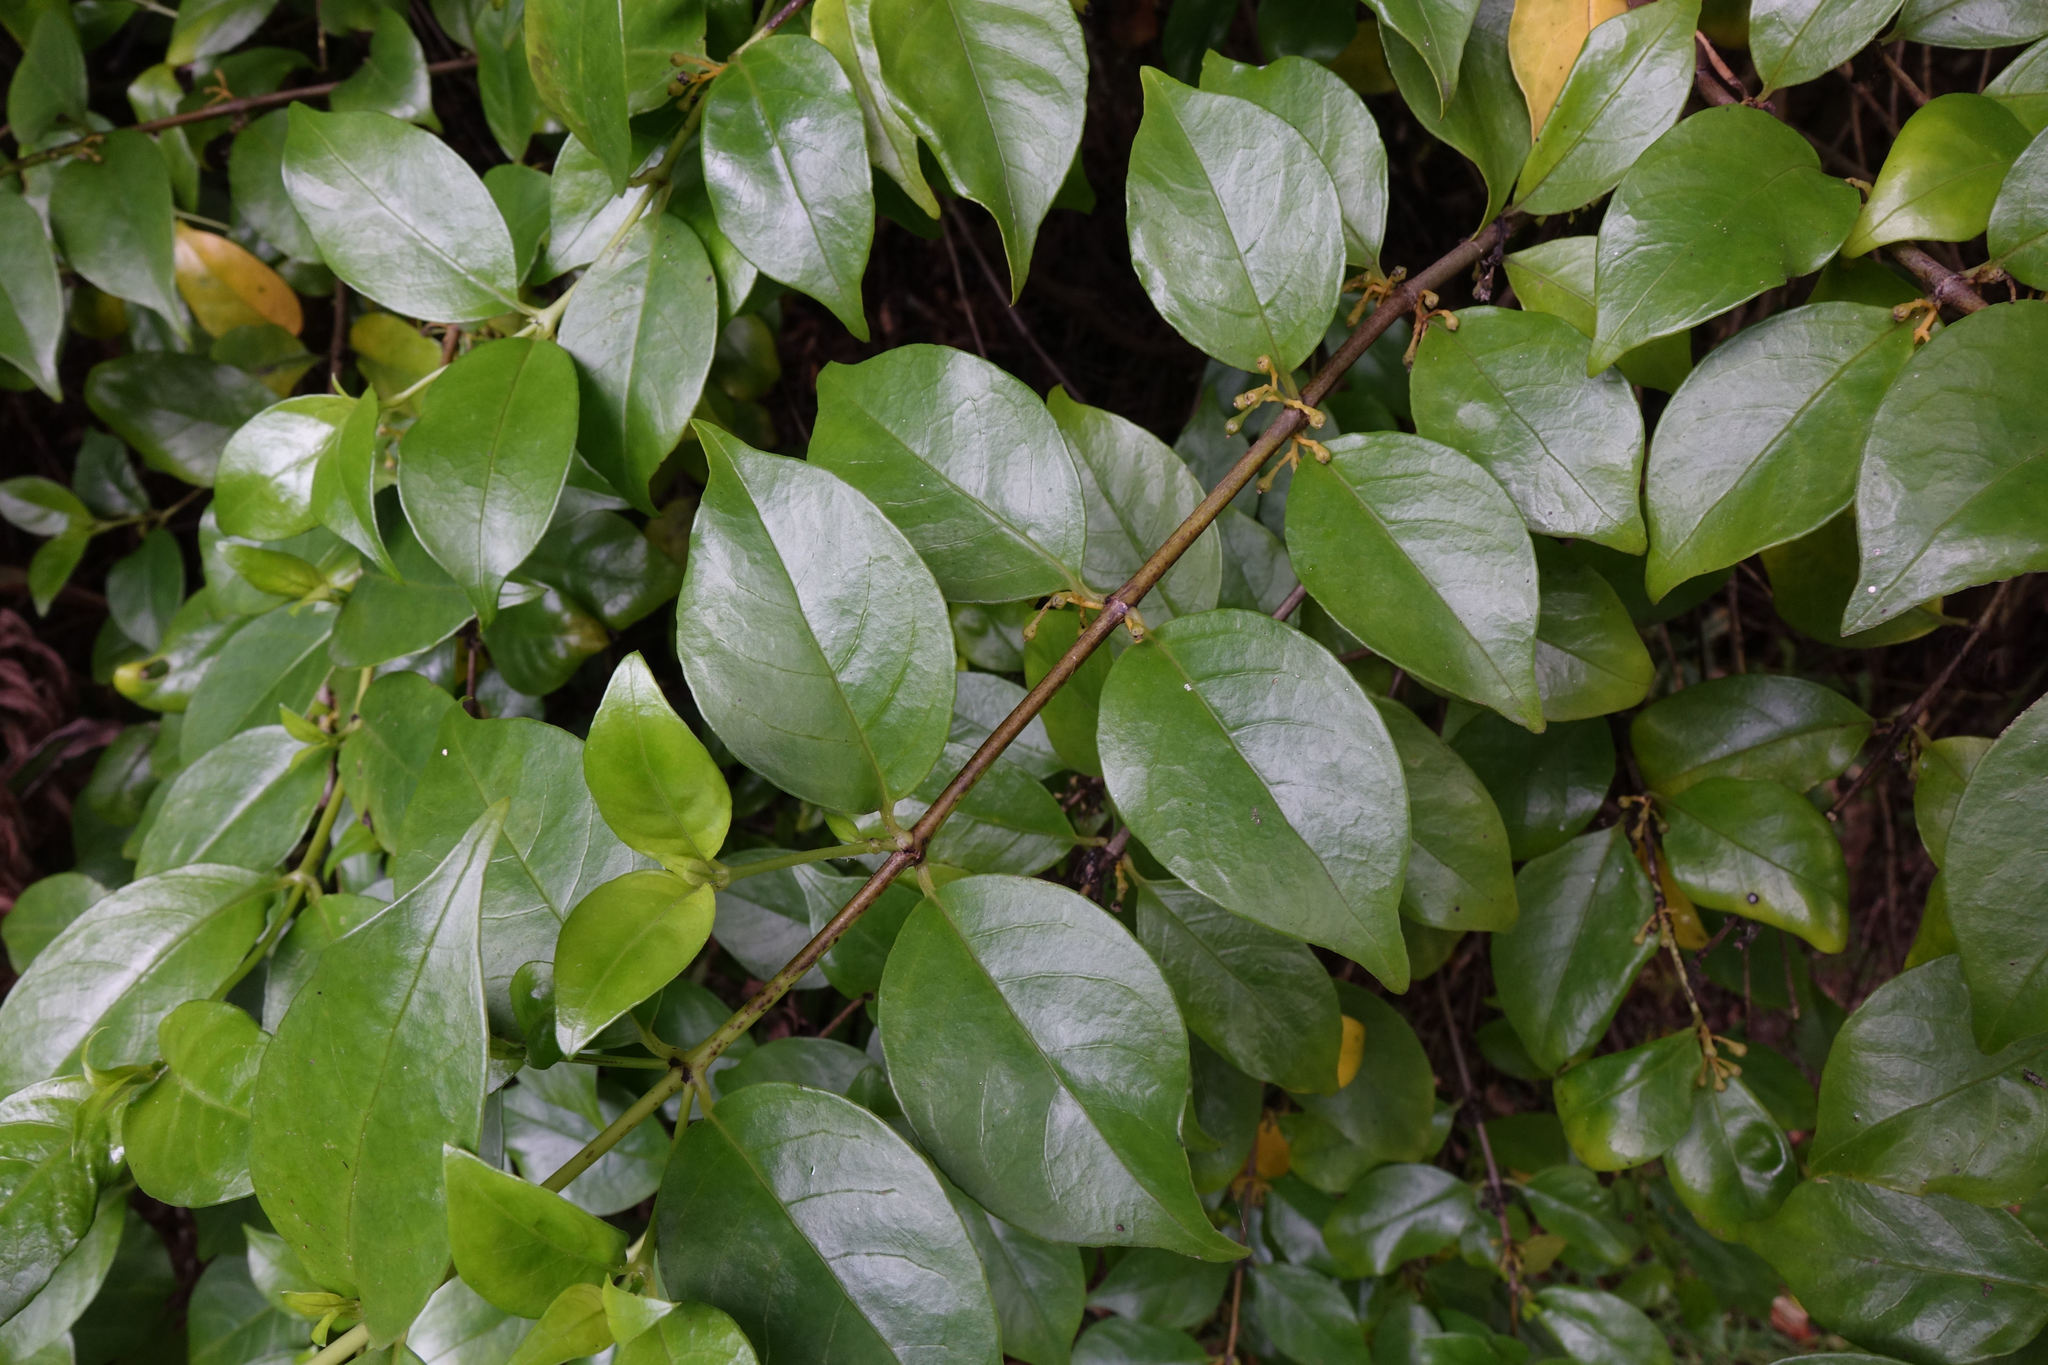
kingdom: Plantae
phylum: Tracheophyta
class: Magnoliopsida
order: Gentianales
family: Loganiaceae
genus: Geniostoma
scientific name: Geniostoma ligustrifolium
